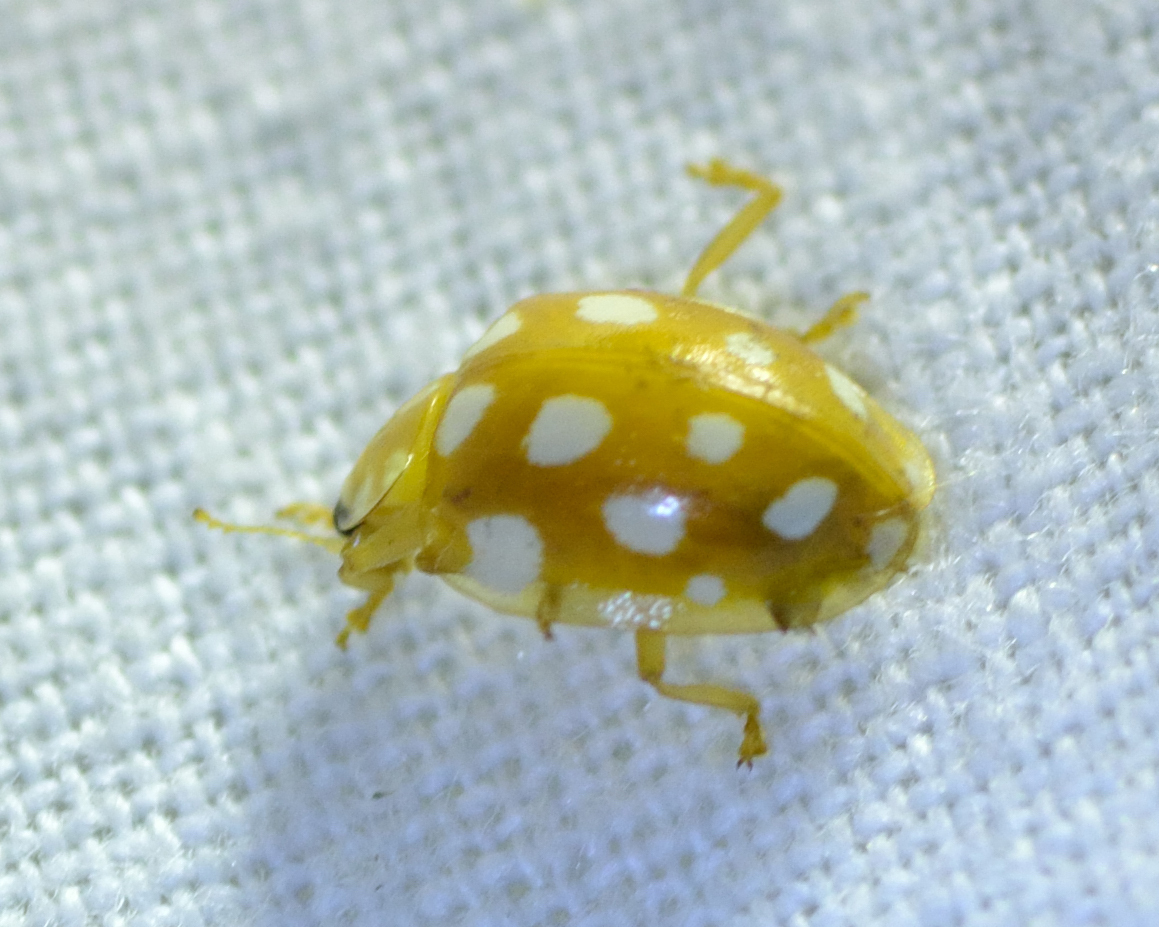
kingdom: Animalia
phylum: Arthropoda
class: Insecta
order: Coleoptera
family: Coccinellidae
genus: Halyzia
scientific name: Halyzia sedecimguttata
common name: Orange ladybird
